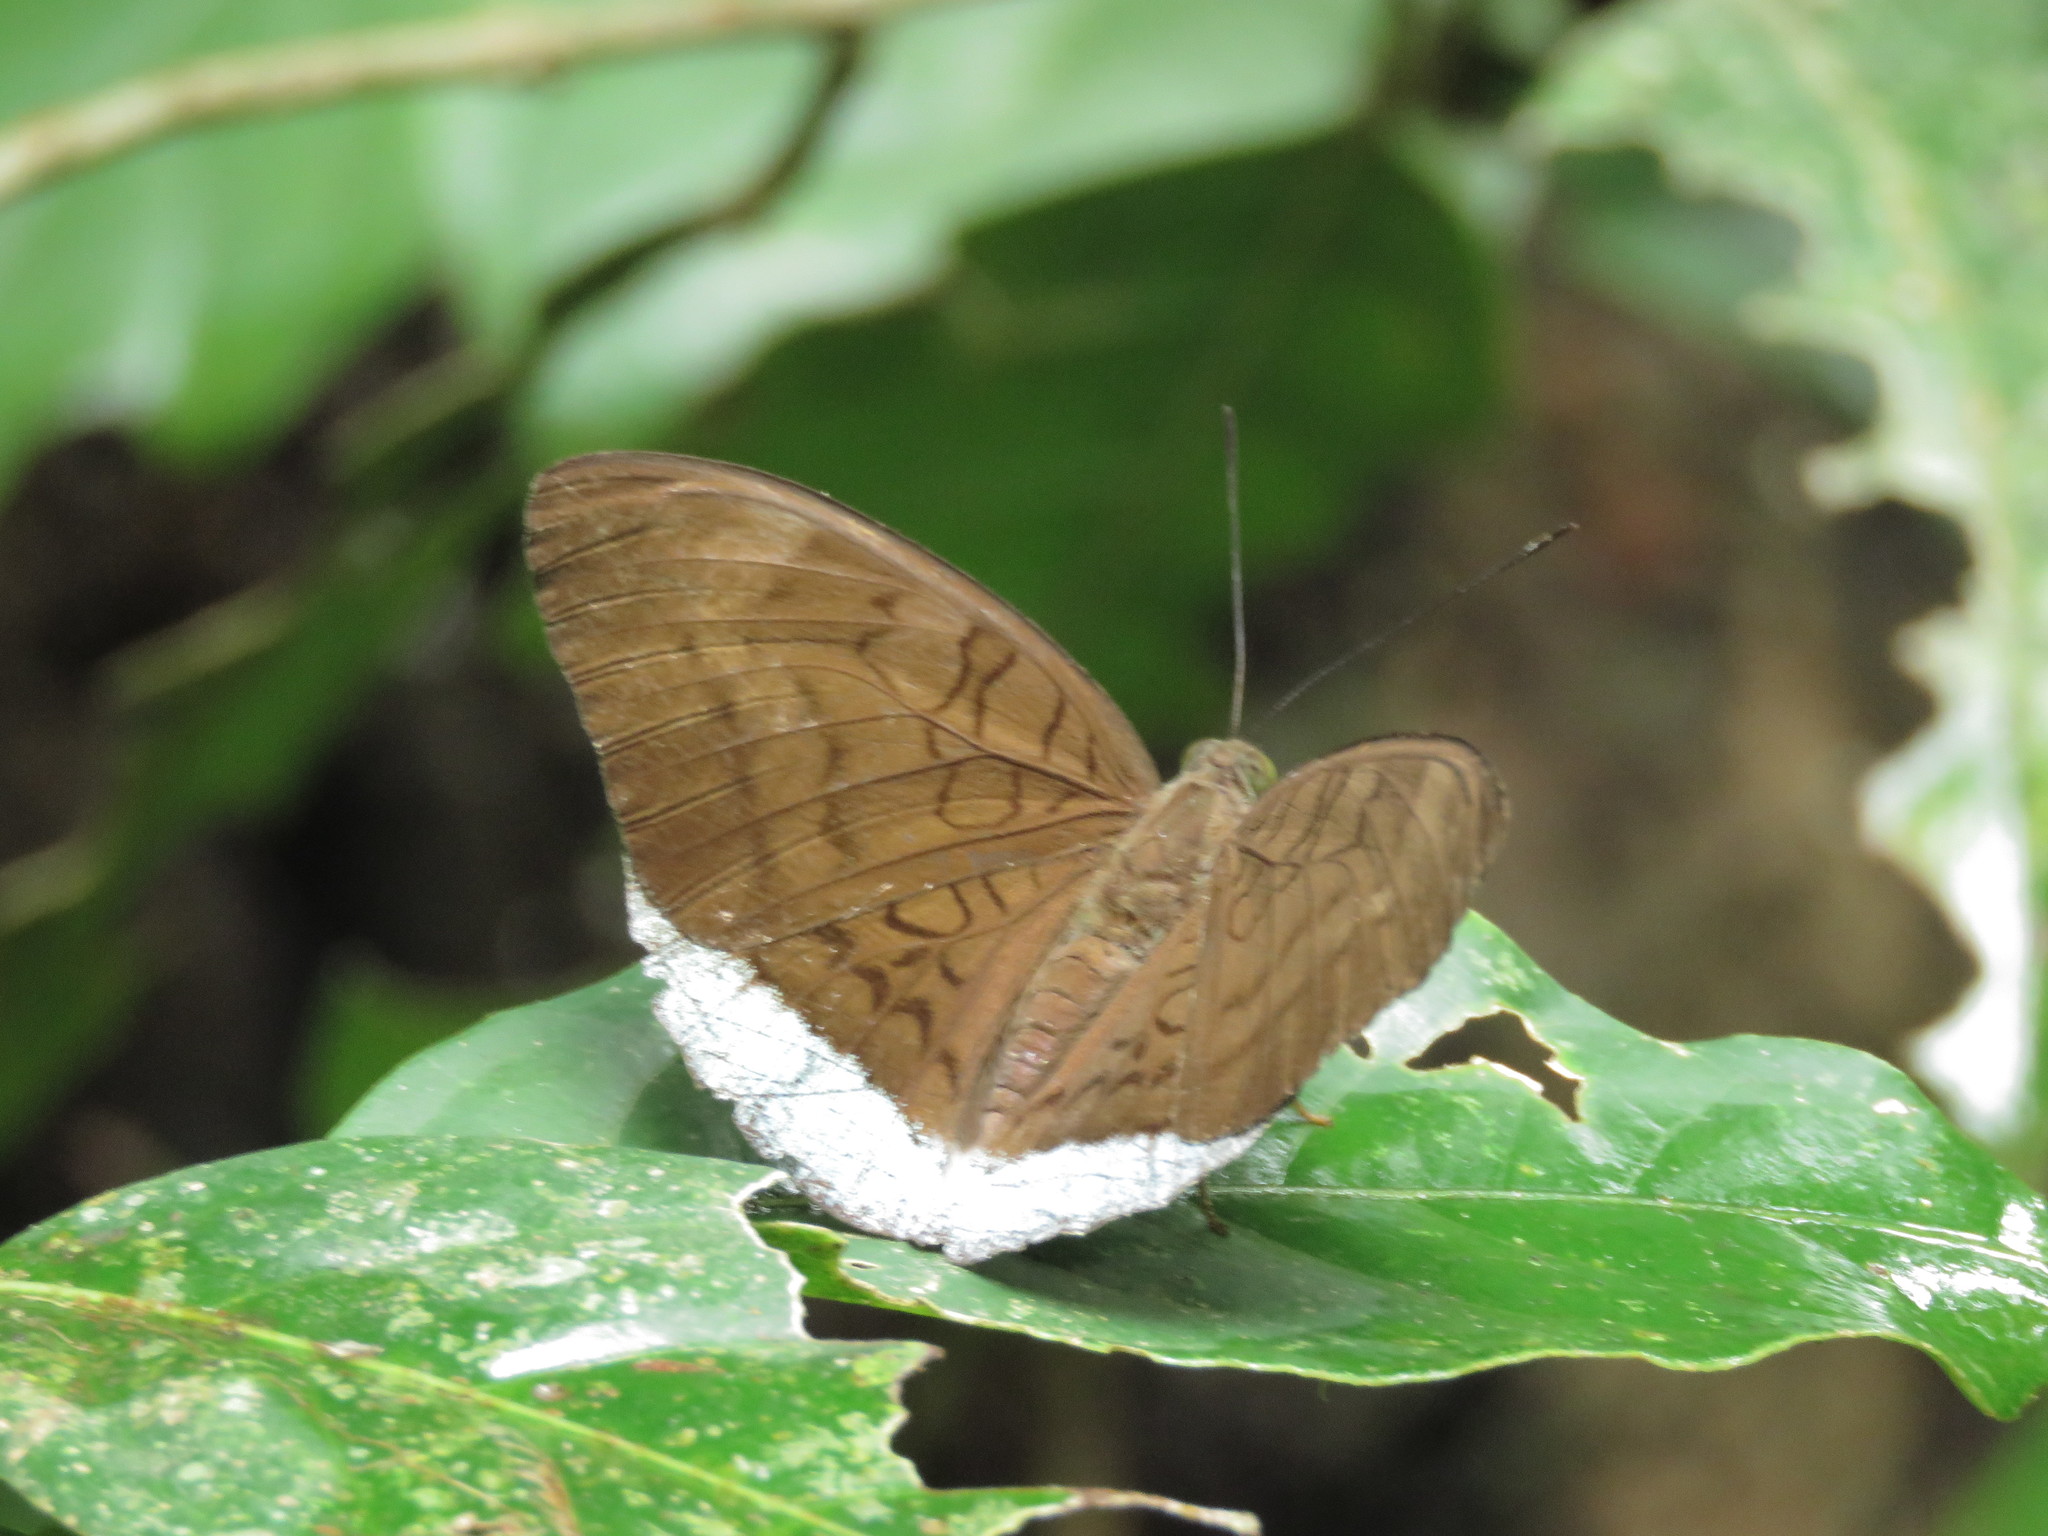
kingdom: Animalia
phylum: Arthropoda
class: Insecta
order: Lepidoptera
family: Nymphalidae
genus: Tanaecia
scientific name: Tanaecia julii
